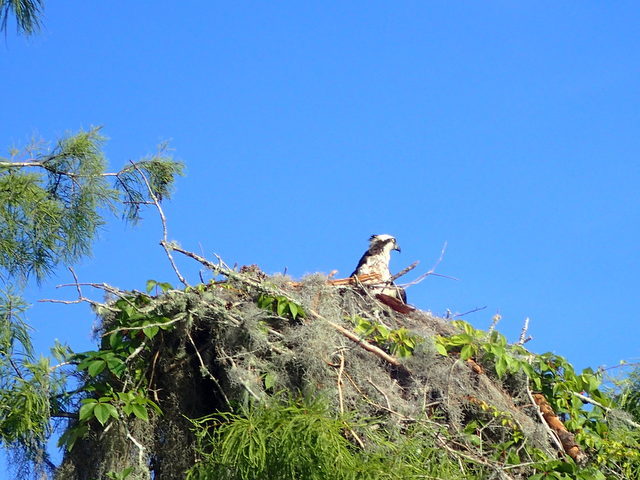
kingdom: Animalia
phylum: Chordata
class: Aves
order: Accipitriformes
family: Pandionidae
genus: Pandion
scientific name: Pandion haliaetus
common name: Osprey
